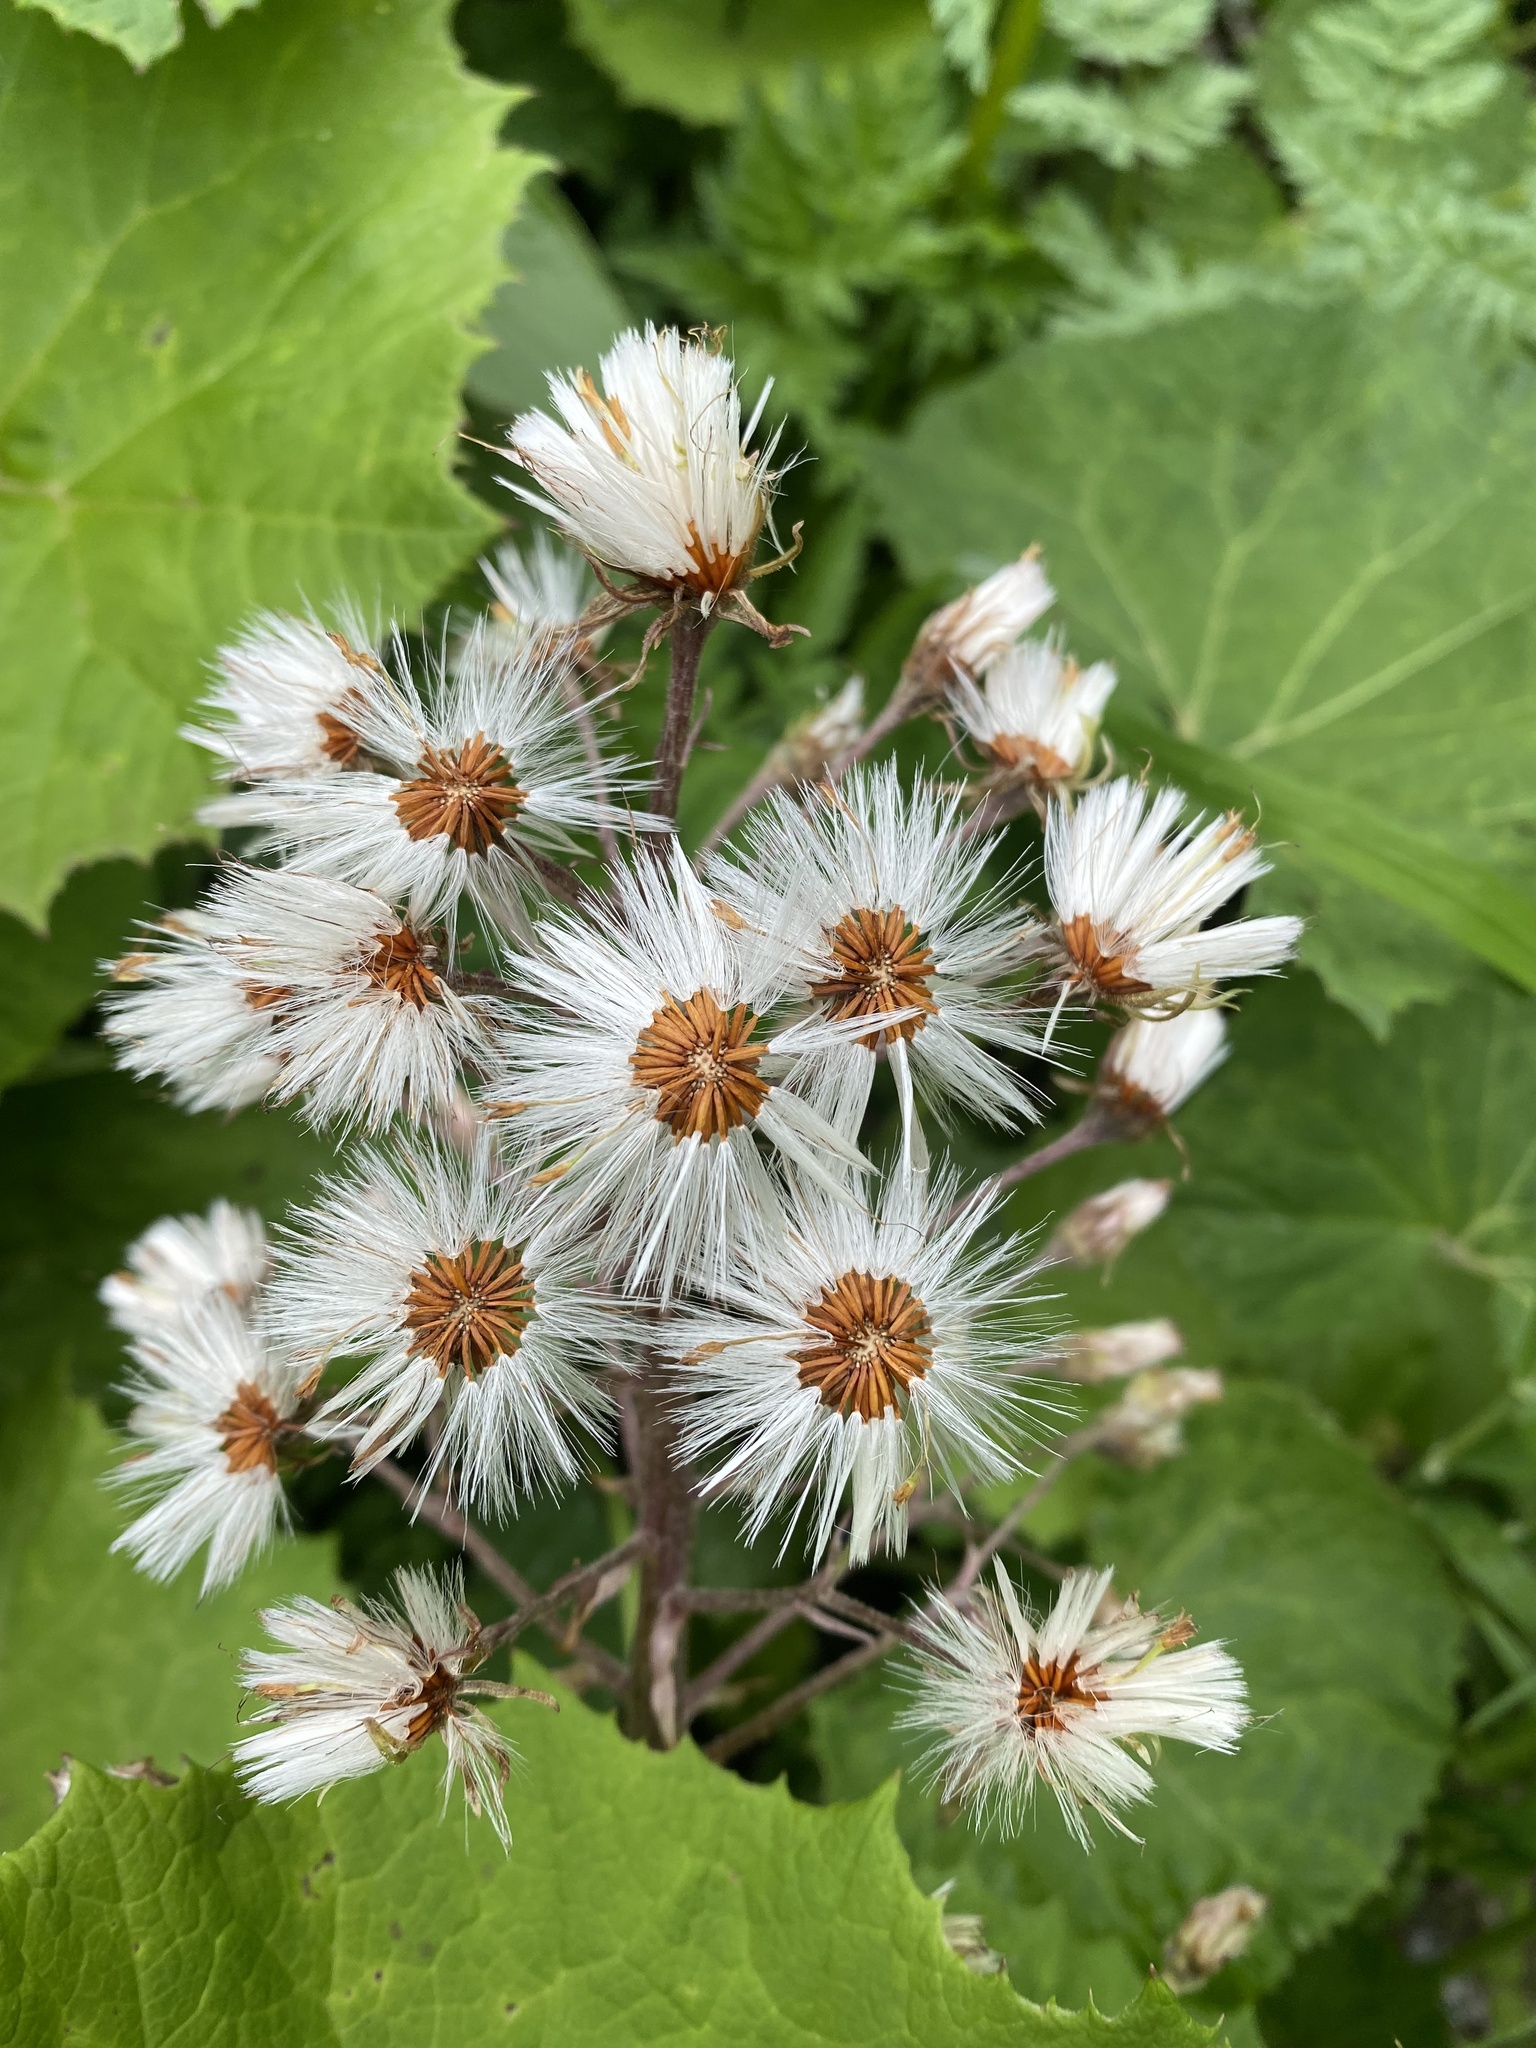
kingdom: Plantae
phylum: Tracheophyta
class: Magnoliopsida
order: Asterales
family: Asteraceae
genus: Petasites
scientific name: Petasites albus
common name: White butterbur
